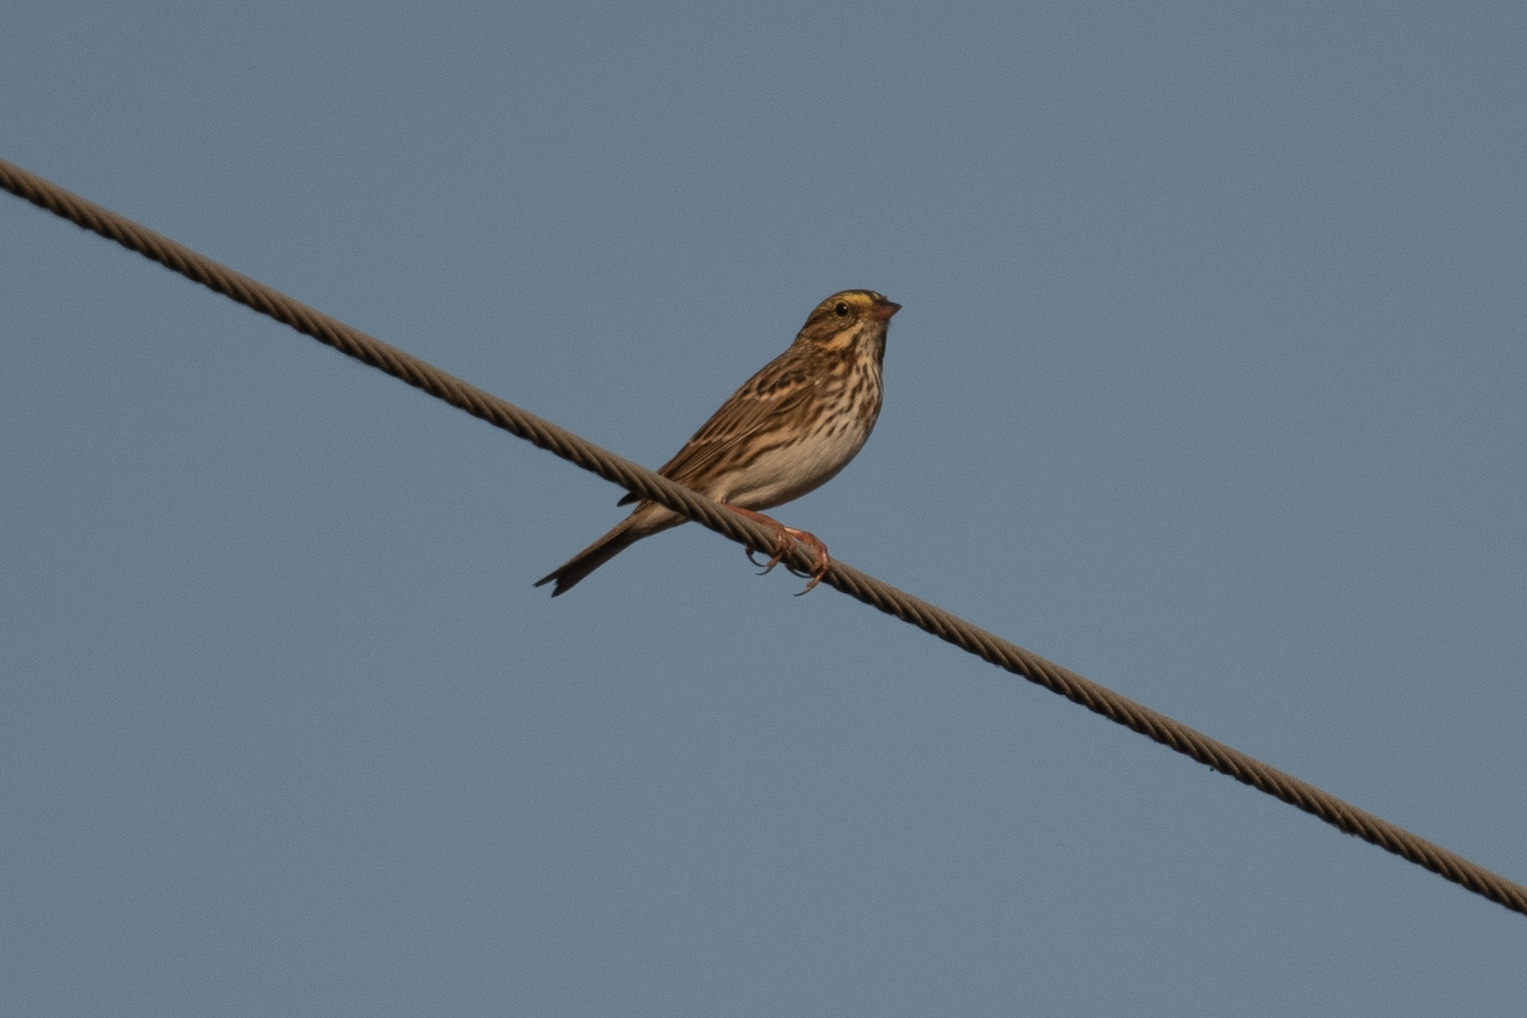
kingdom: Animalia
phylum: Chordata
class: Aves
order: Passeriformes
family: Passerellidae
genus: Passerculus
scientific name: Passerculus sandwichensis
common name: Savannah sparrow
